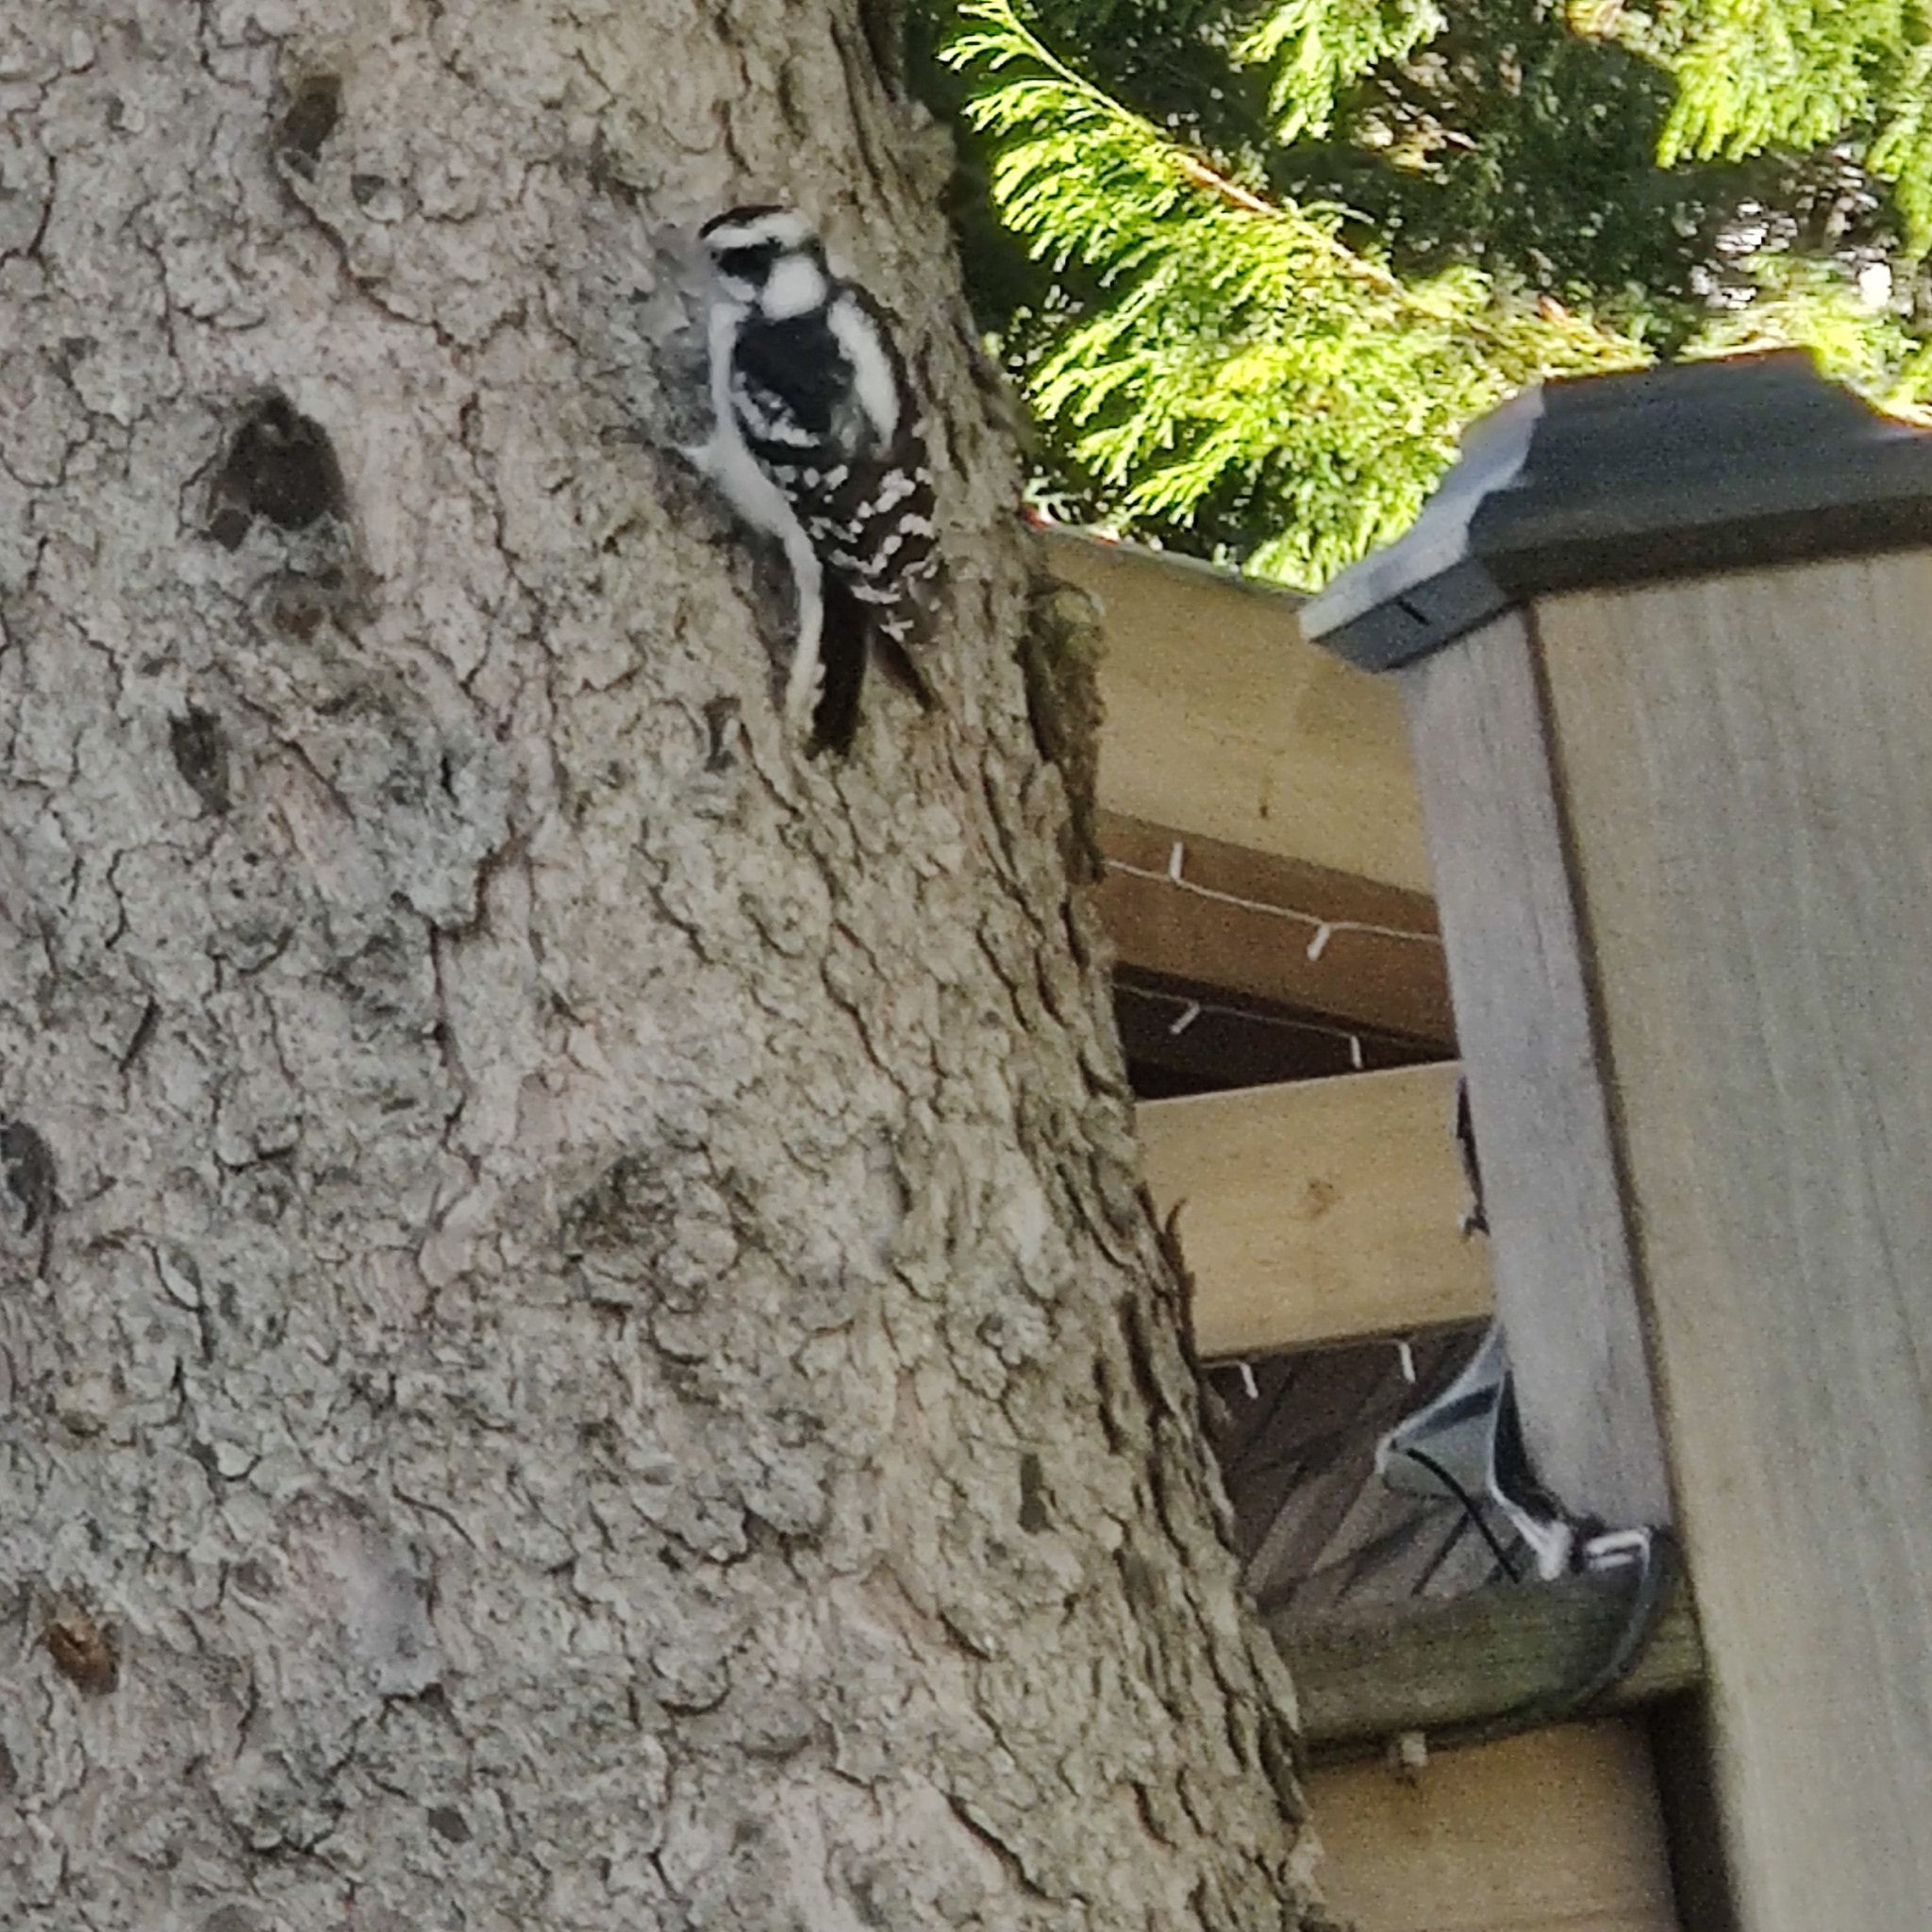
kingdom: Animalia
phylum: Chordata
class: Aves
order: Piciformes
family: Picidae
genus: Dryobates
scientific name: Dryobates pubescens
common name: Downy woodpecker
